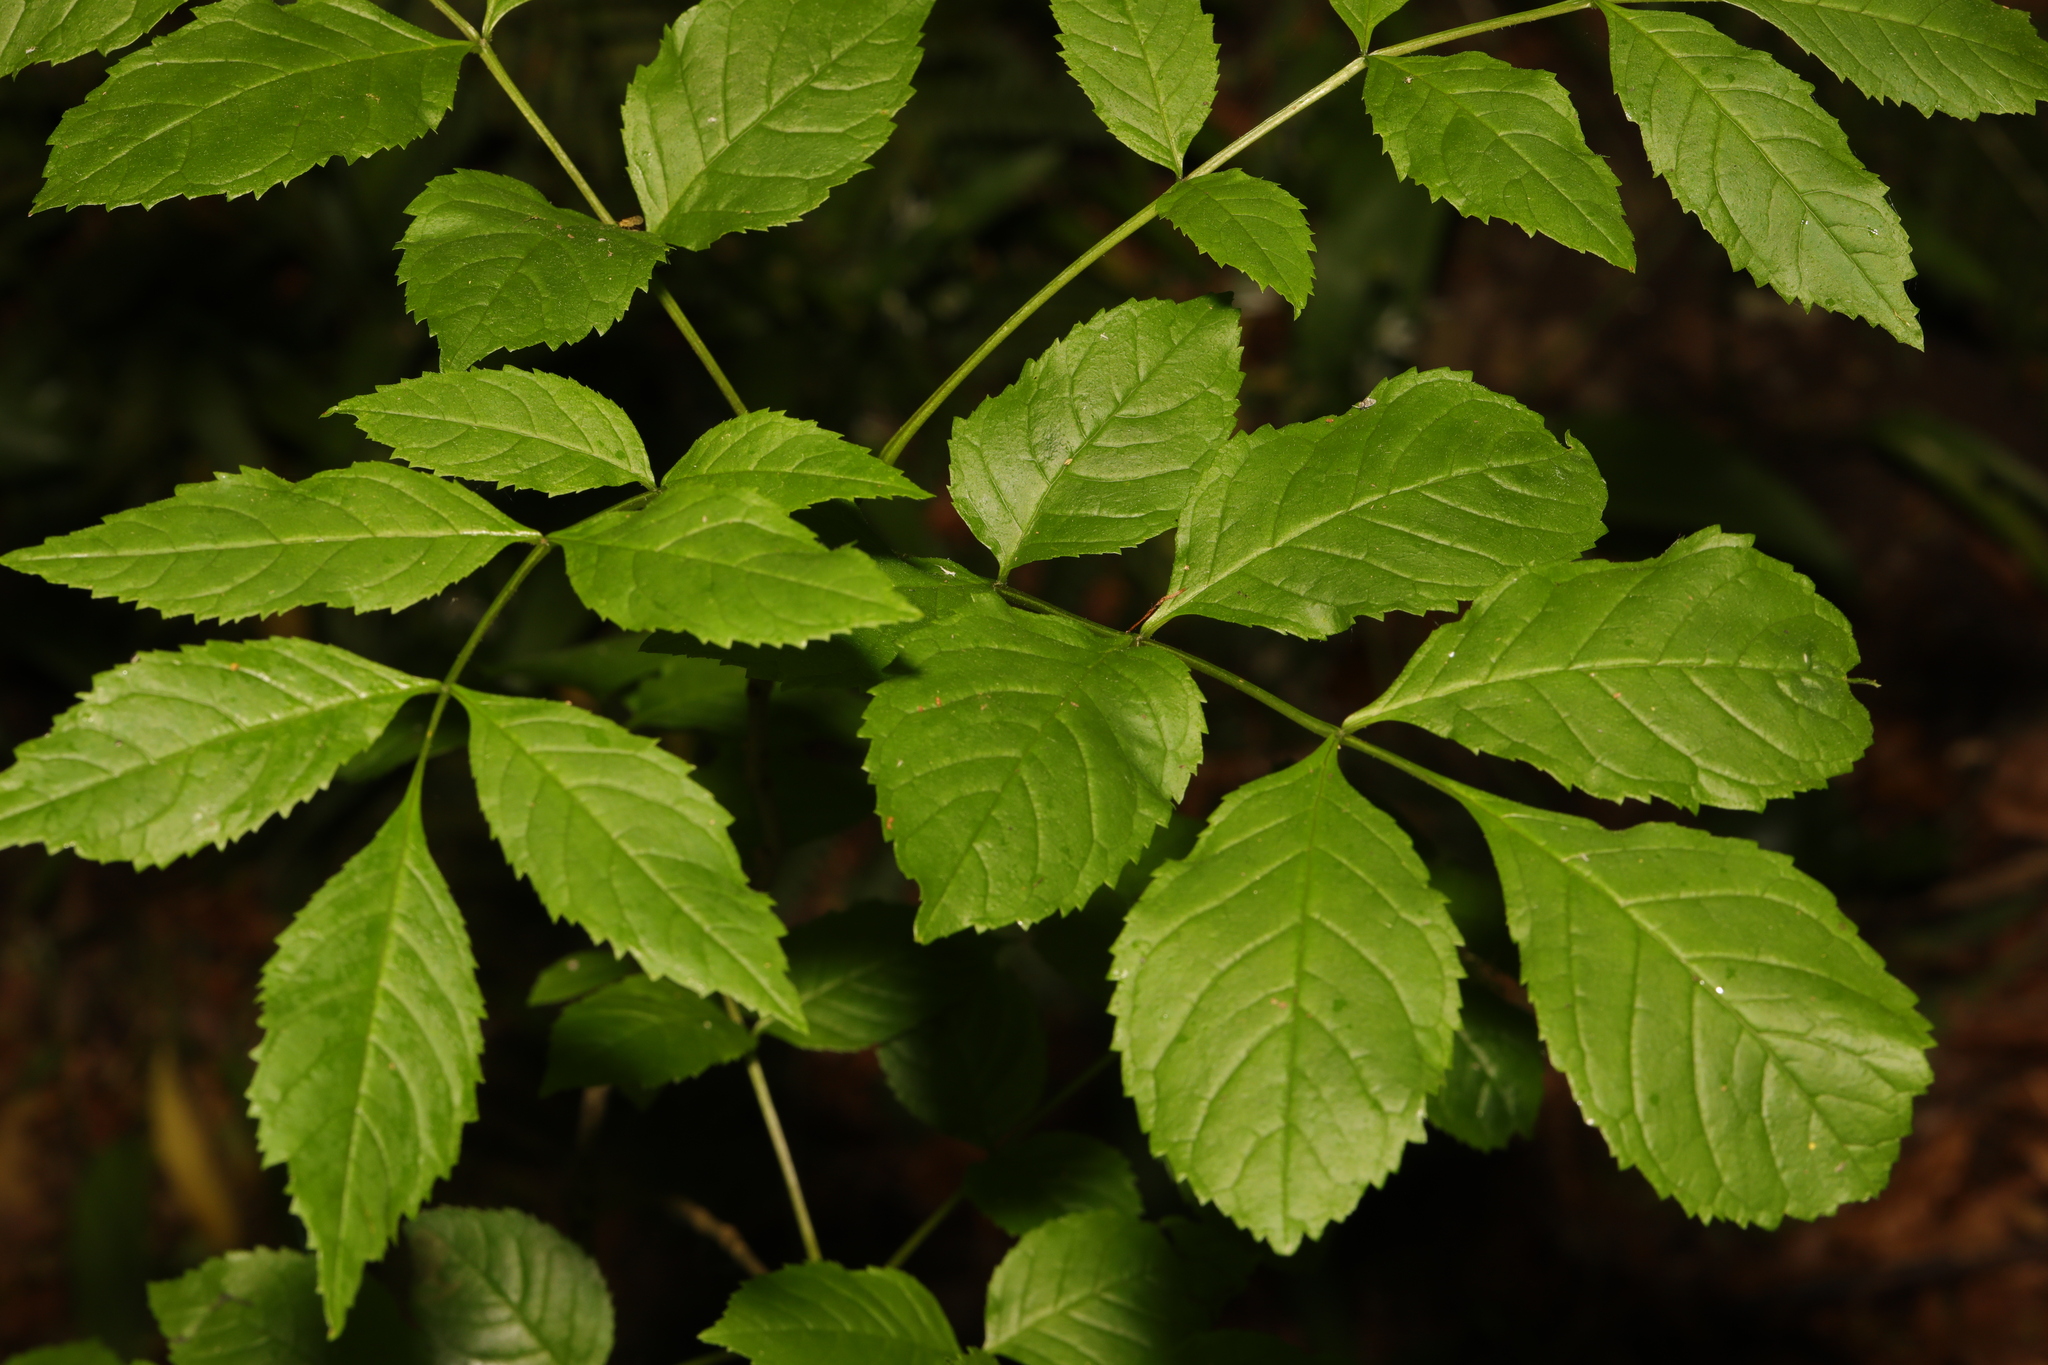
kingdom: Plantae
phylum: Tracheophyta
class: Magnoliopsida
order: Lamiales
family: Oleaceae
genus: Fraxinus
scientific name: Fraxinus excelsior
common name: European ash
